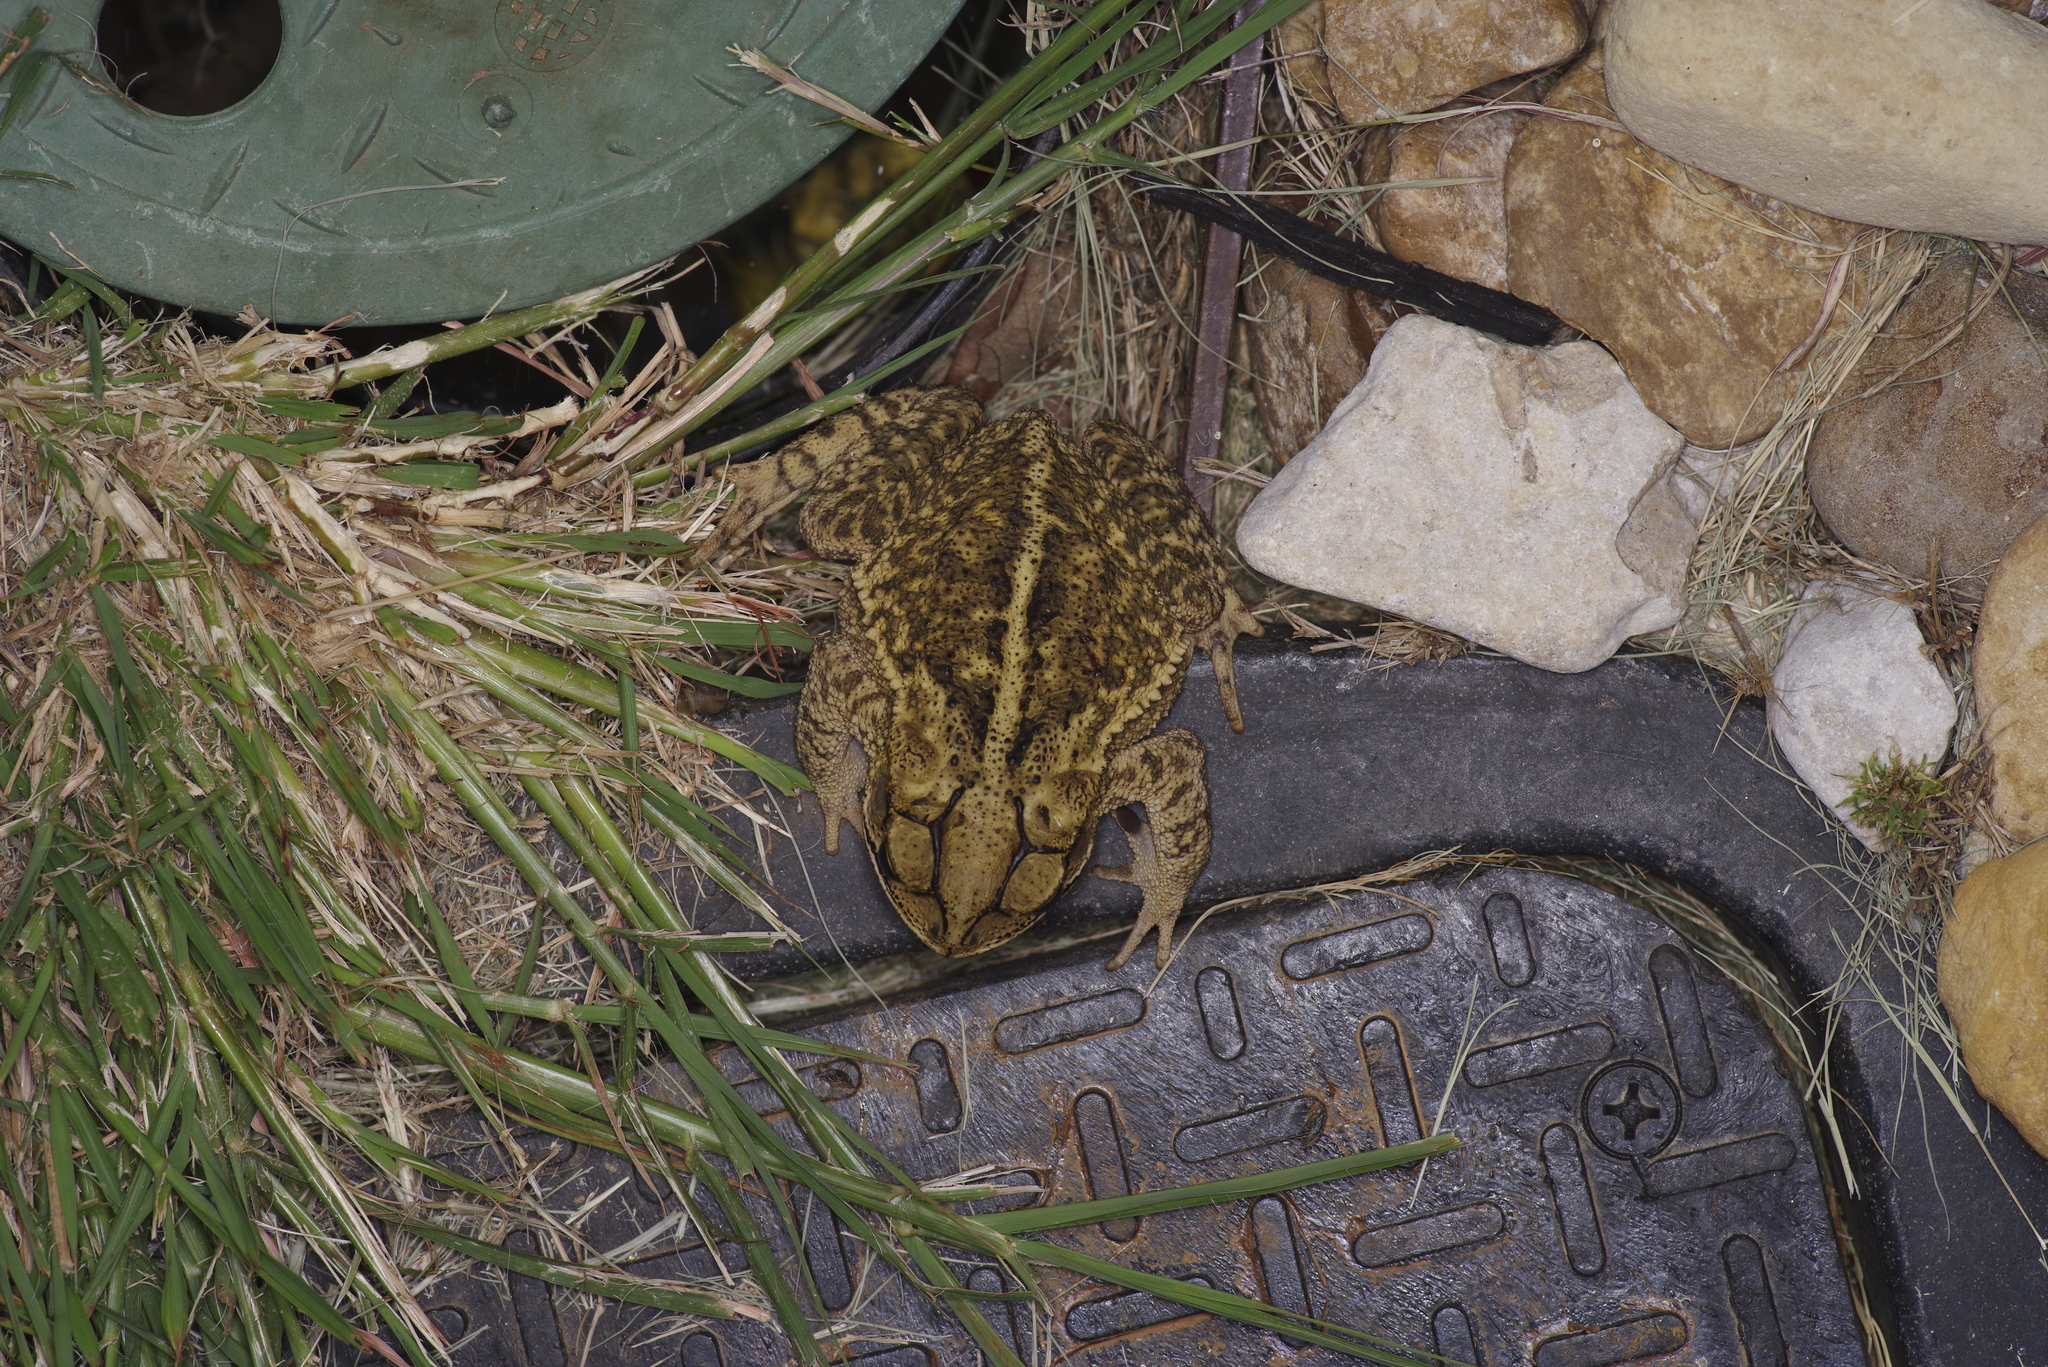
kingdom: Animalia
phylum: Chordata
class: Amphibia
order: Anura
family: Bufonidae
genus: Incilius
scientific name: Incilius nebulifer
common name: Gulf coast toad
